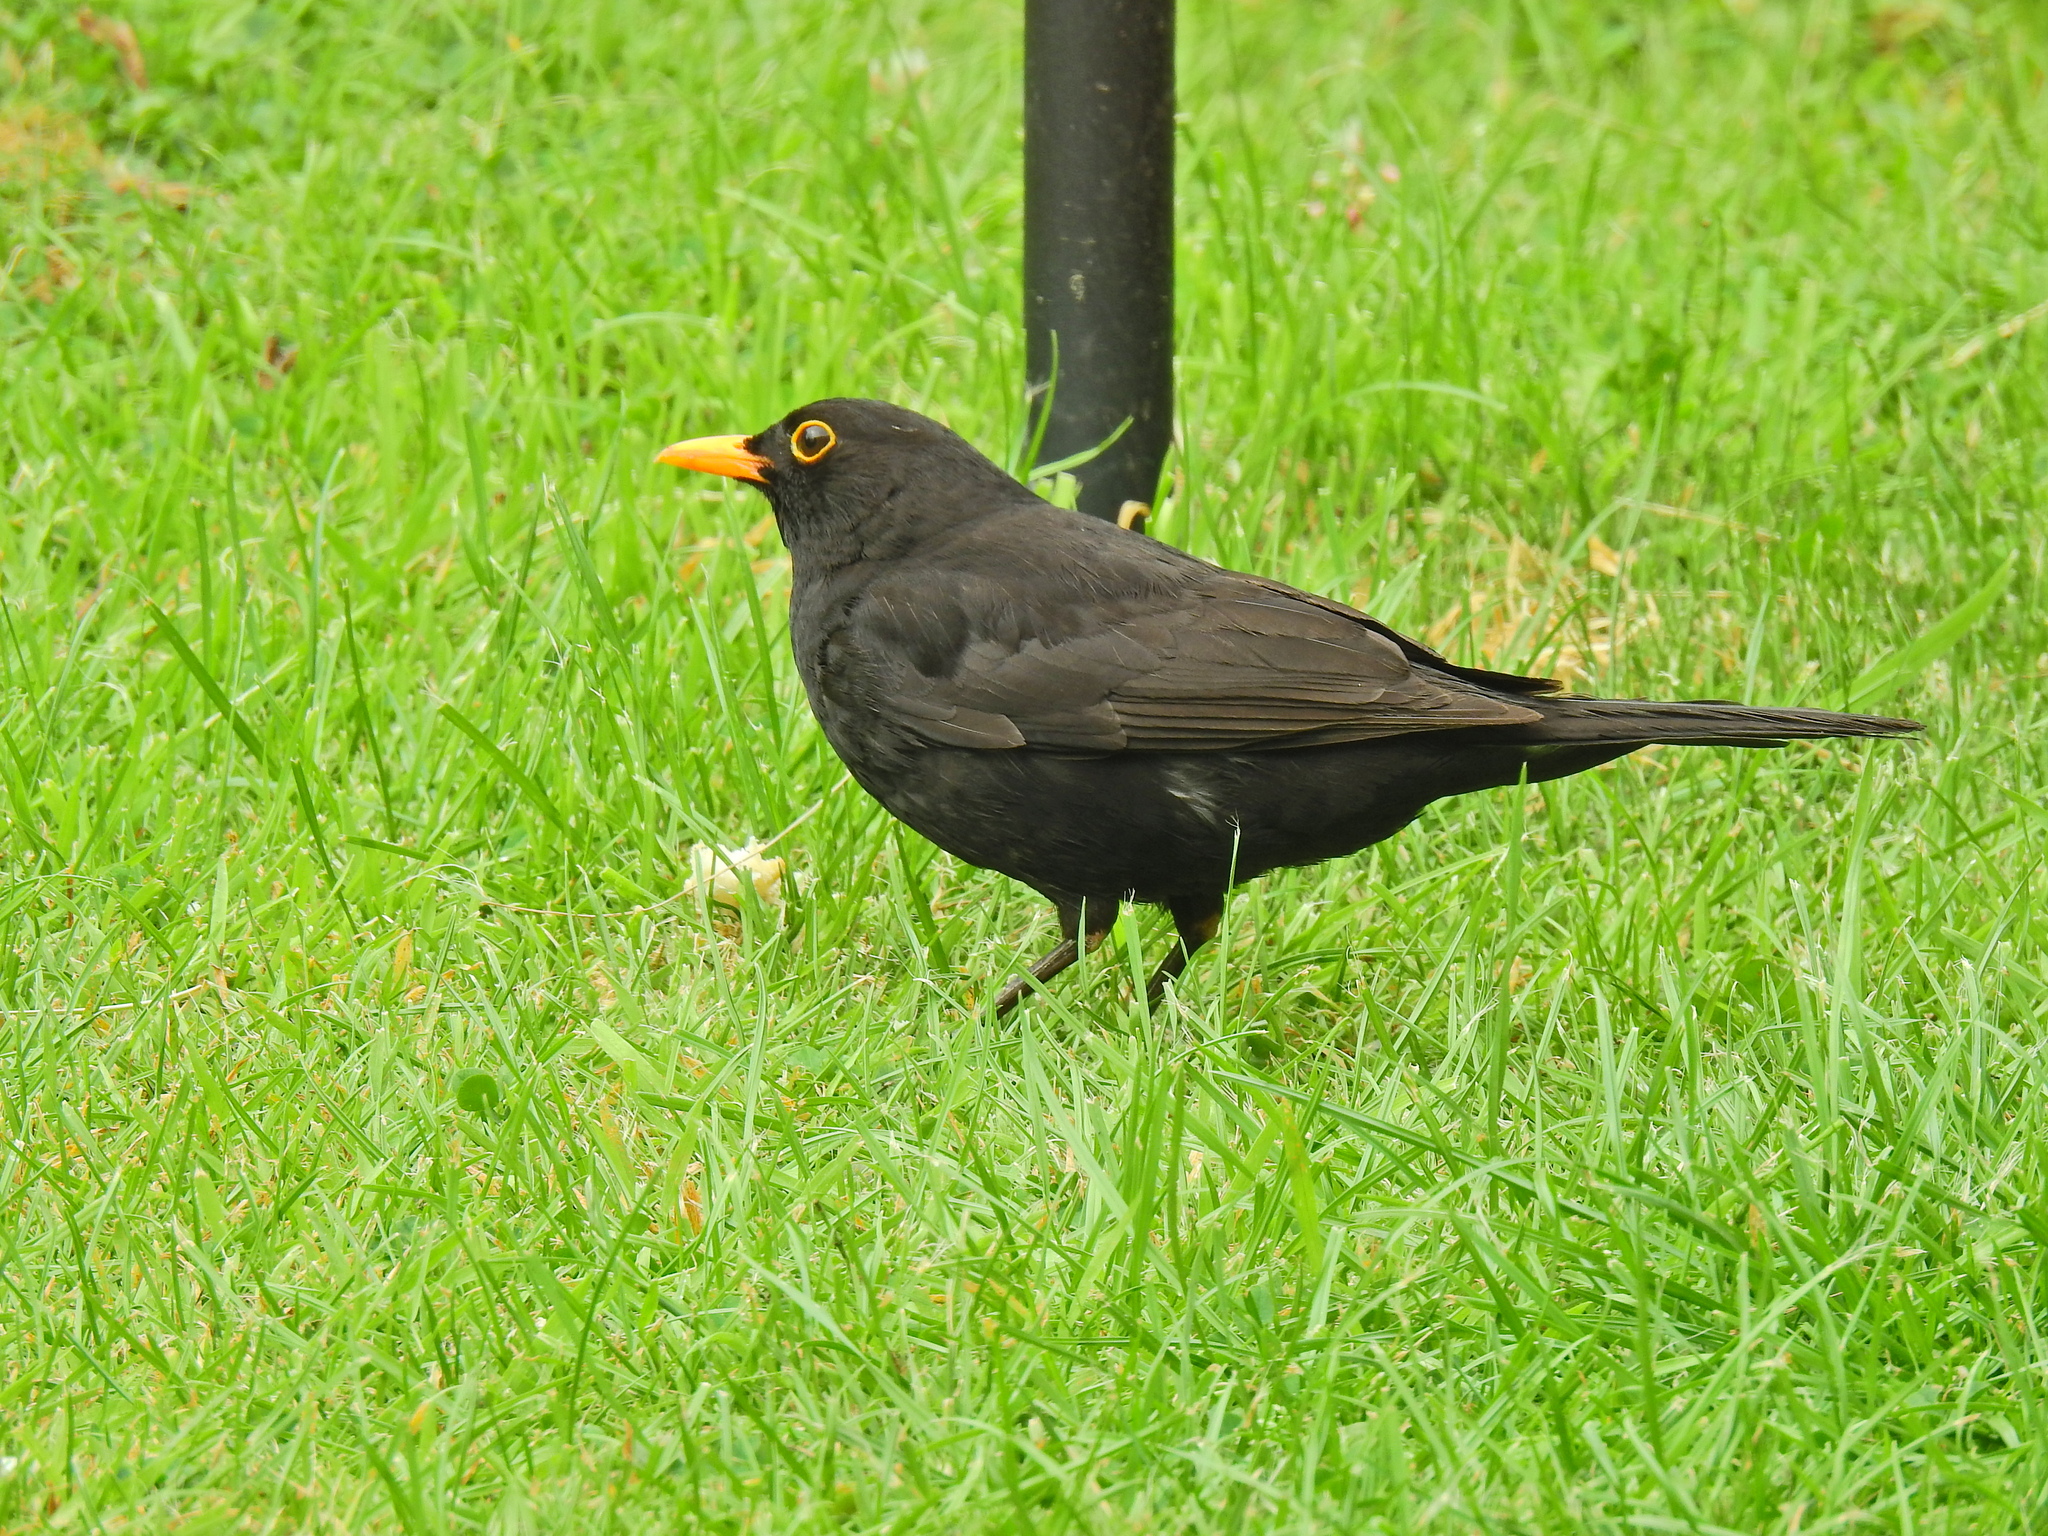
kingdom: Animalia
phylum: Chordata
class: Aves
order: Passeriformes
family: Turdidae
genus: Turdus
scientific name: Turdus merula
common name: Common blackbird
